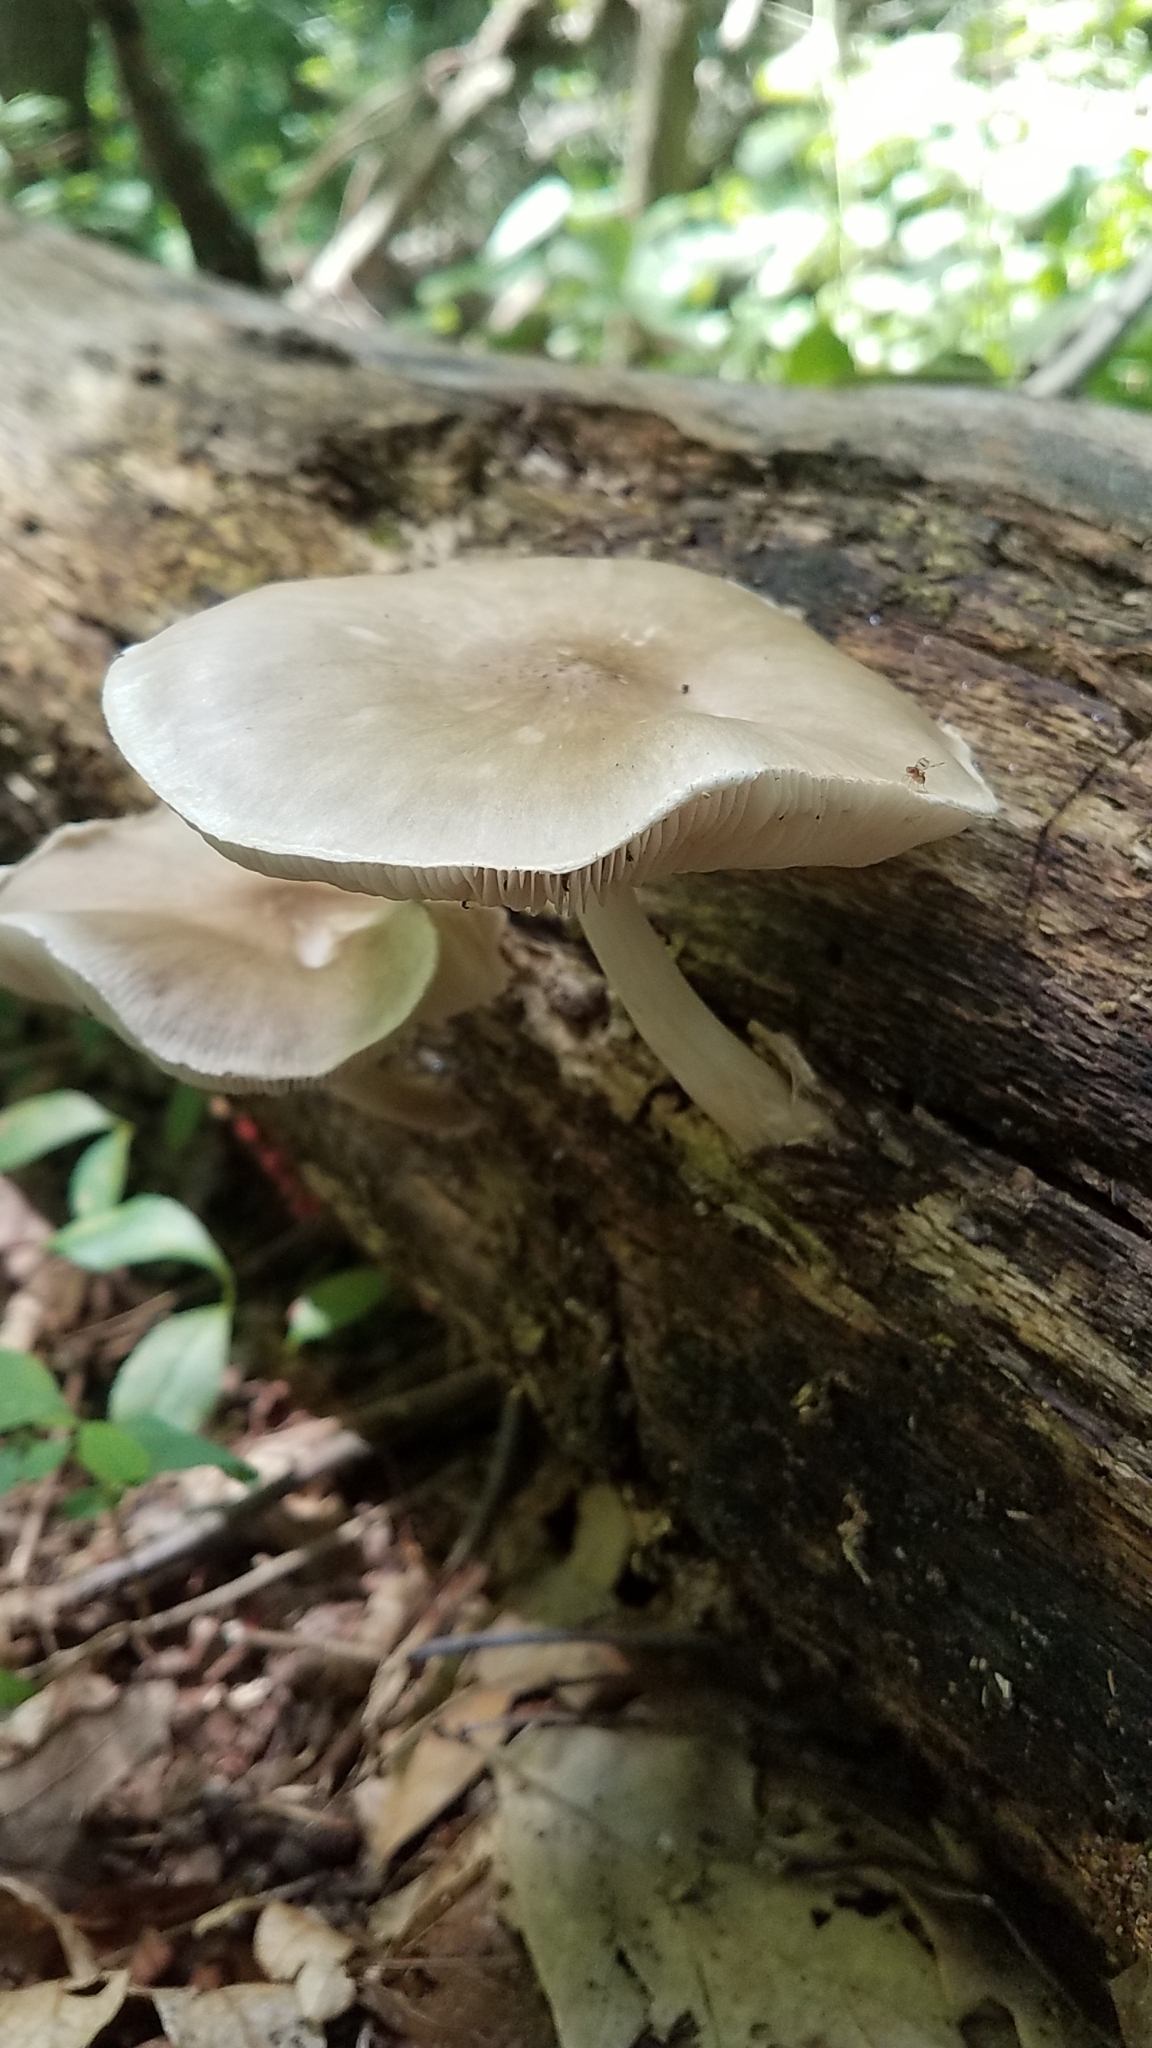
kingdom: Fungi
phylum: Basidiomycota
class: Agaricomycetes
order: Agaricales
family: Pluteaceae
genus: Pluteus
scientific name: Pluteus cervinus
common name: Deer shield
